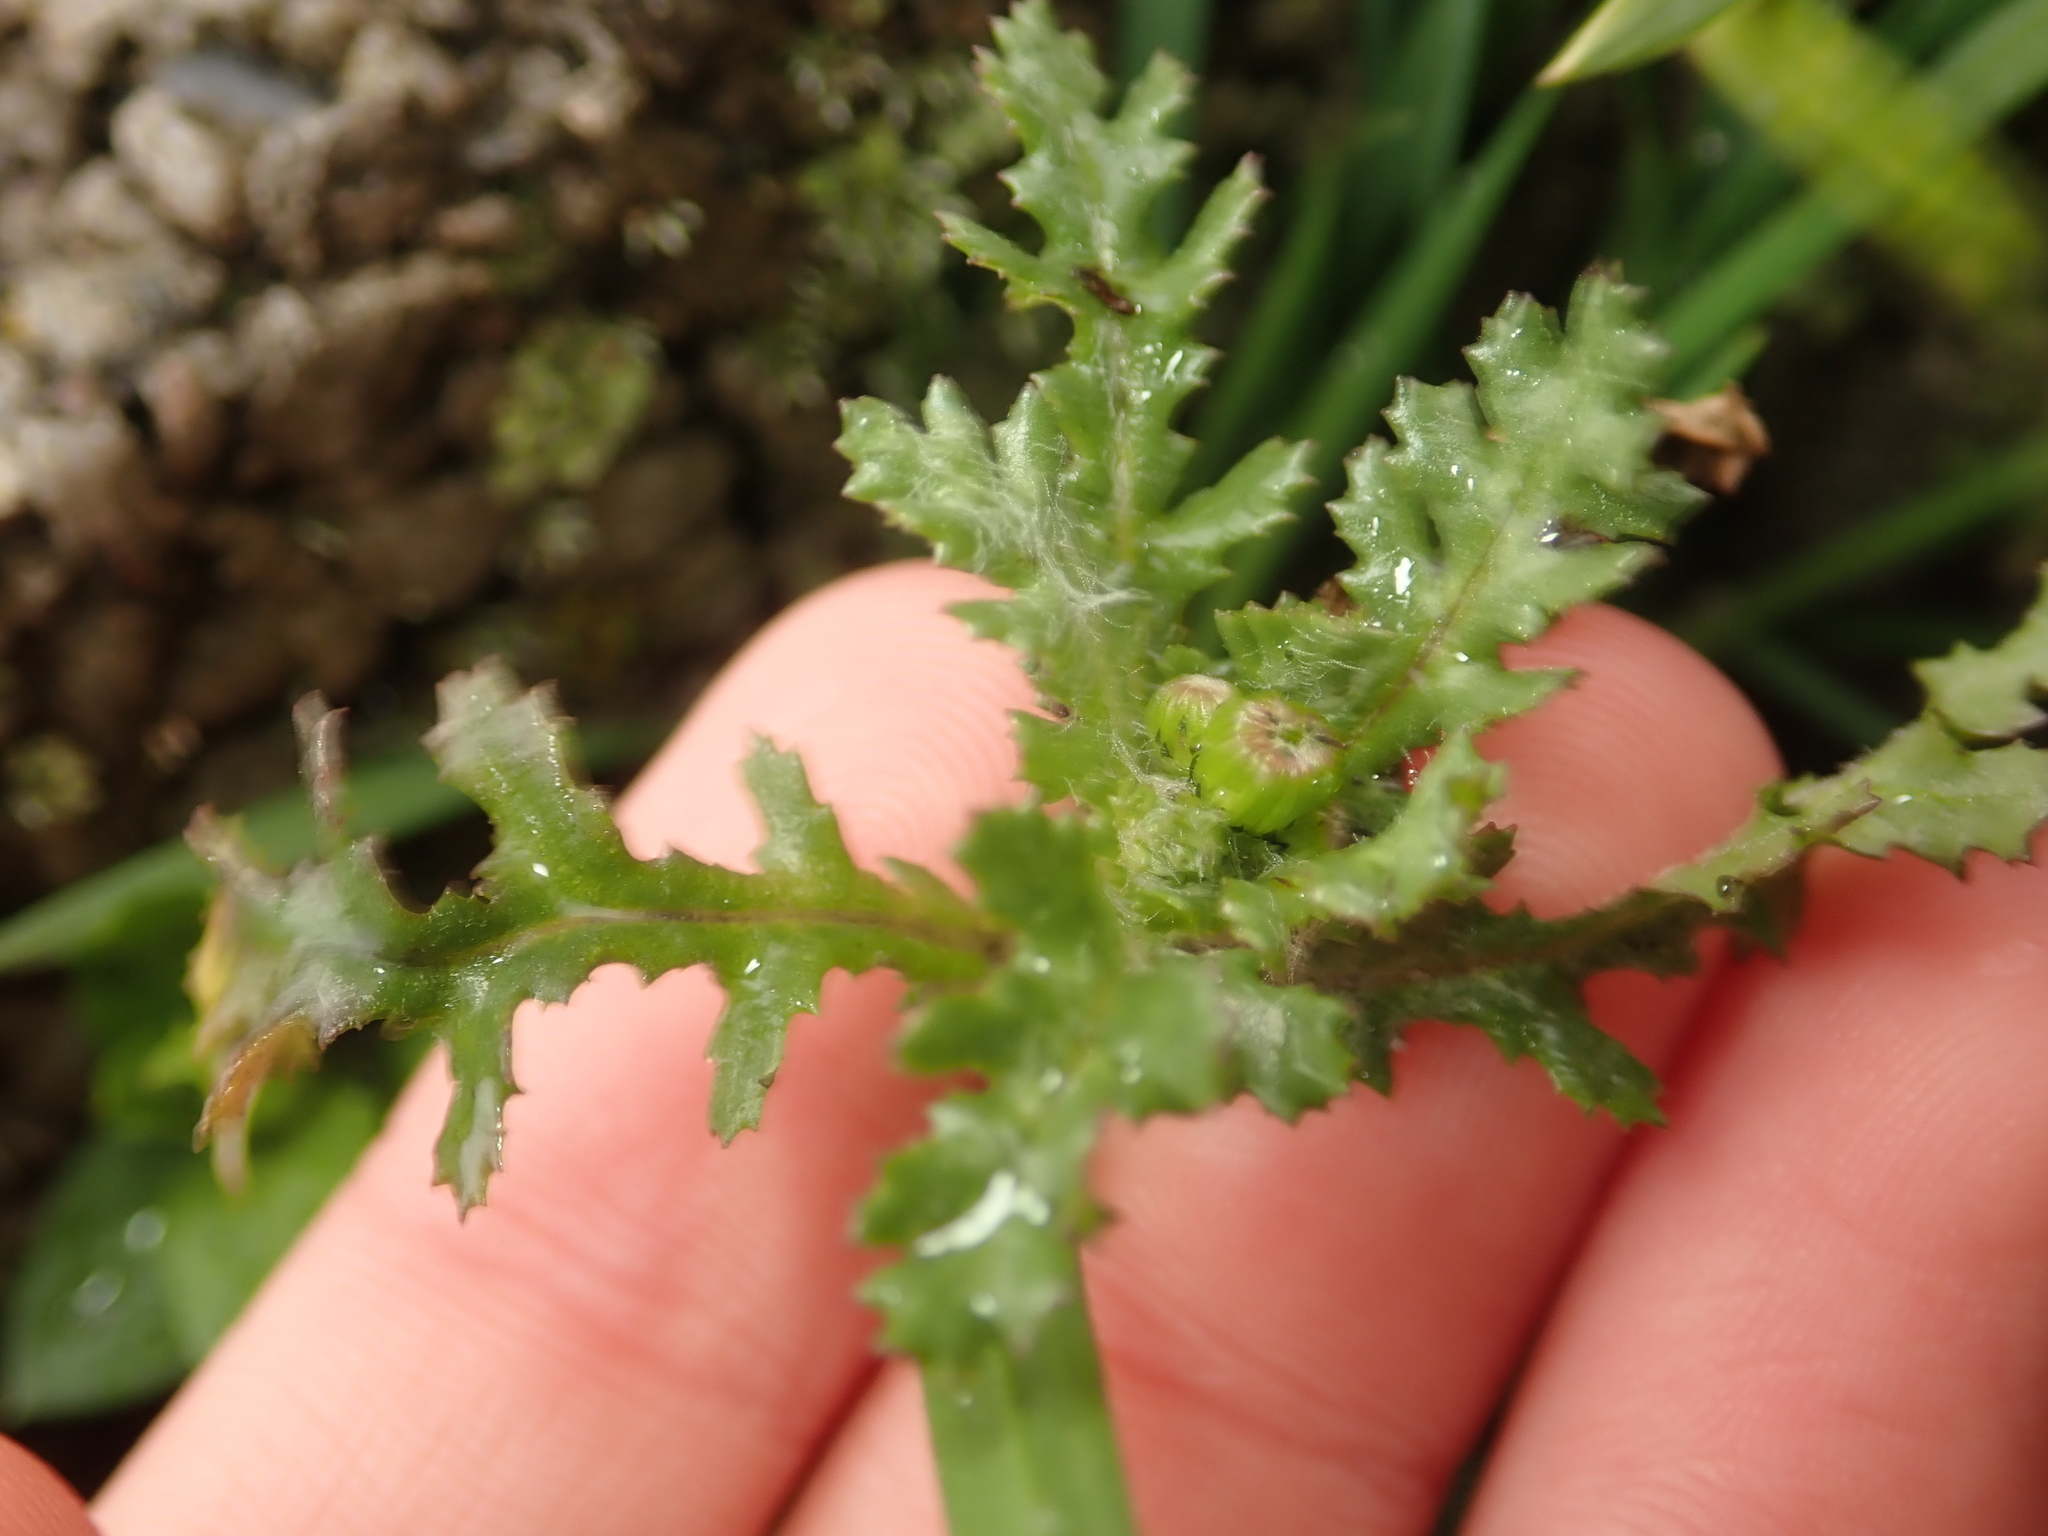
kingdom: Plantae
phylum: Tracheophyta
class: Magnoliopsida
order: Asterales
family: Asteraceae
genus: Senecio
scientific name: Senecio vulgaris
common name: Old-man-in-the-spring
